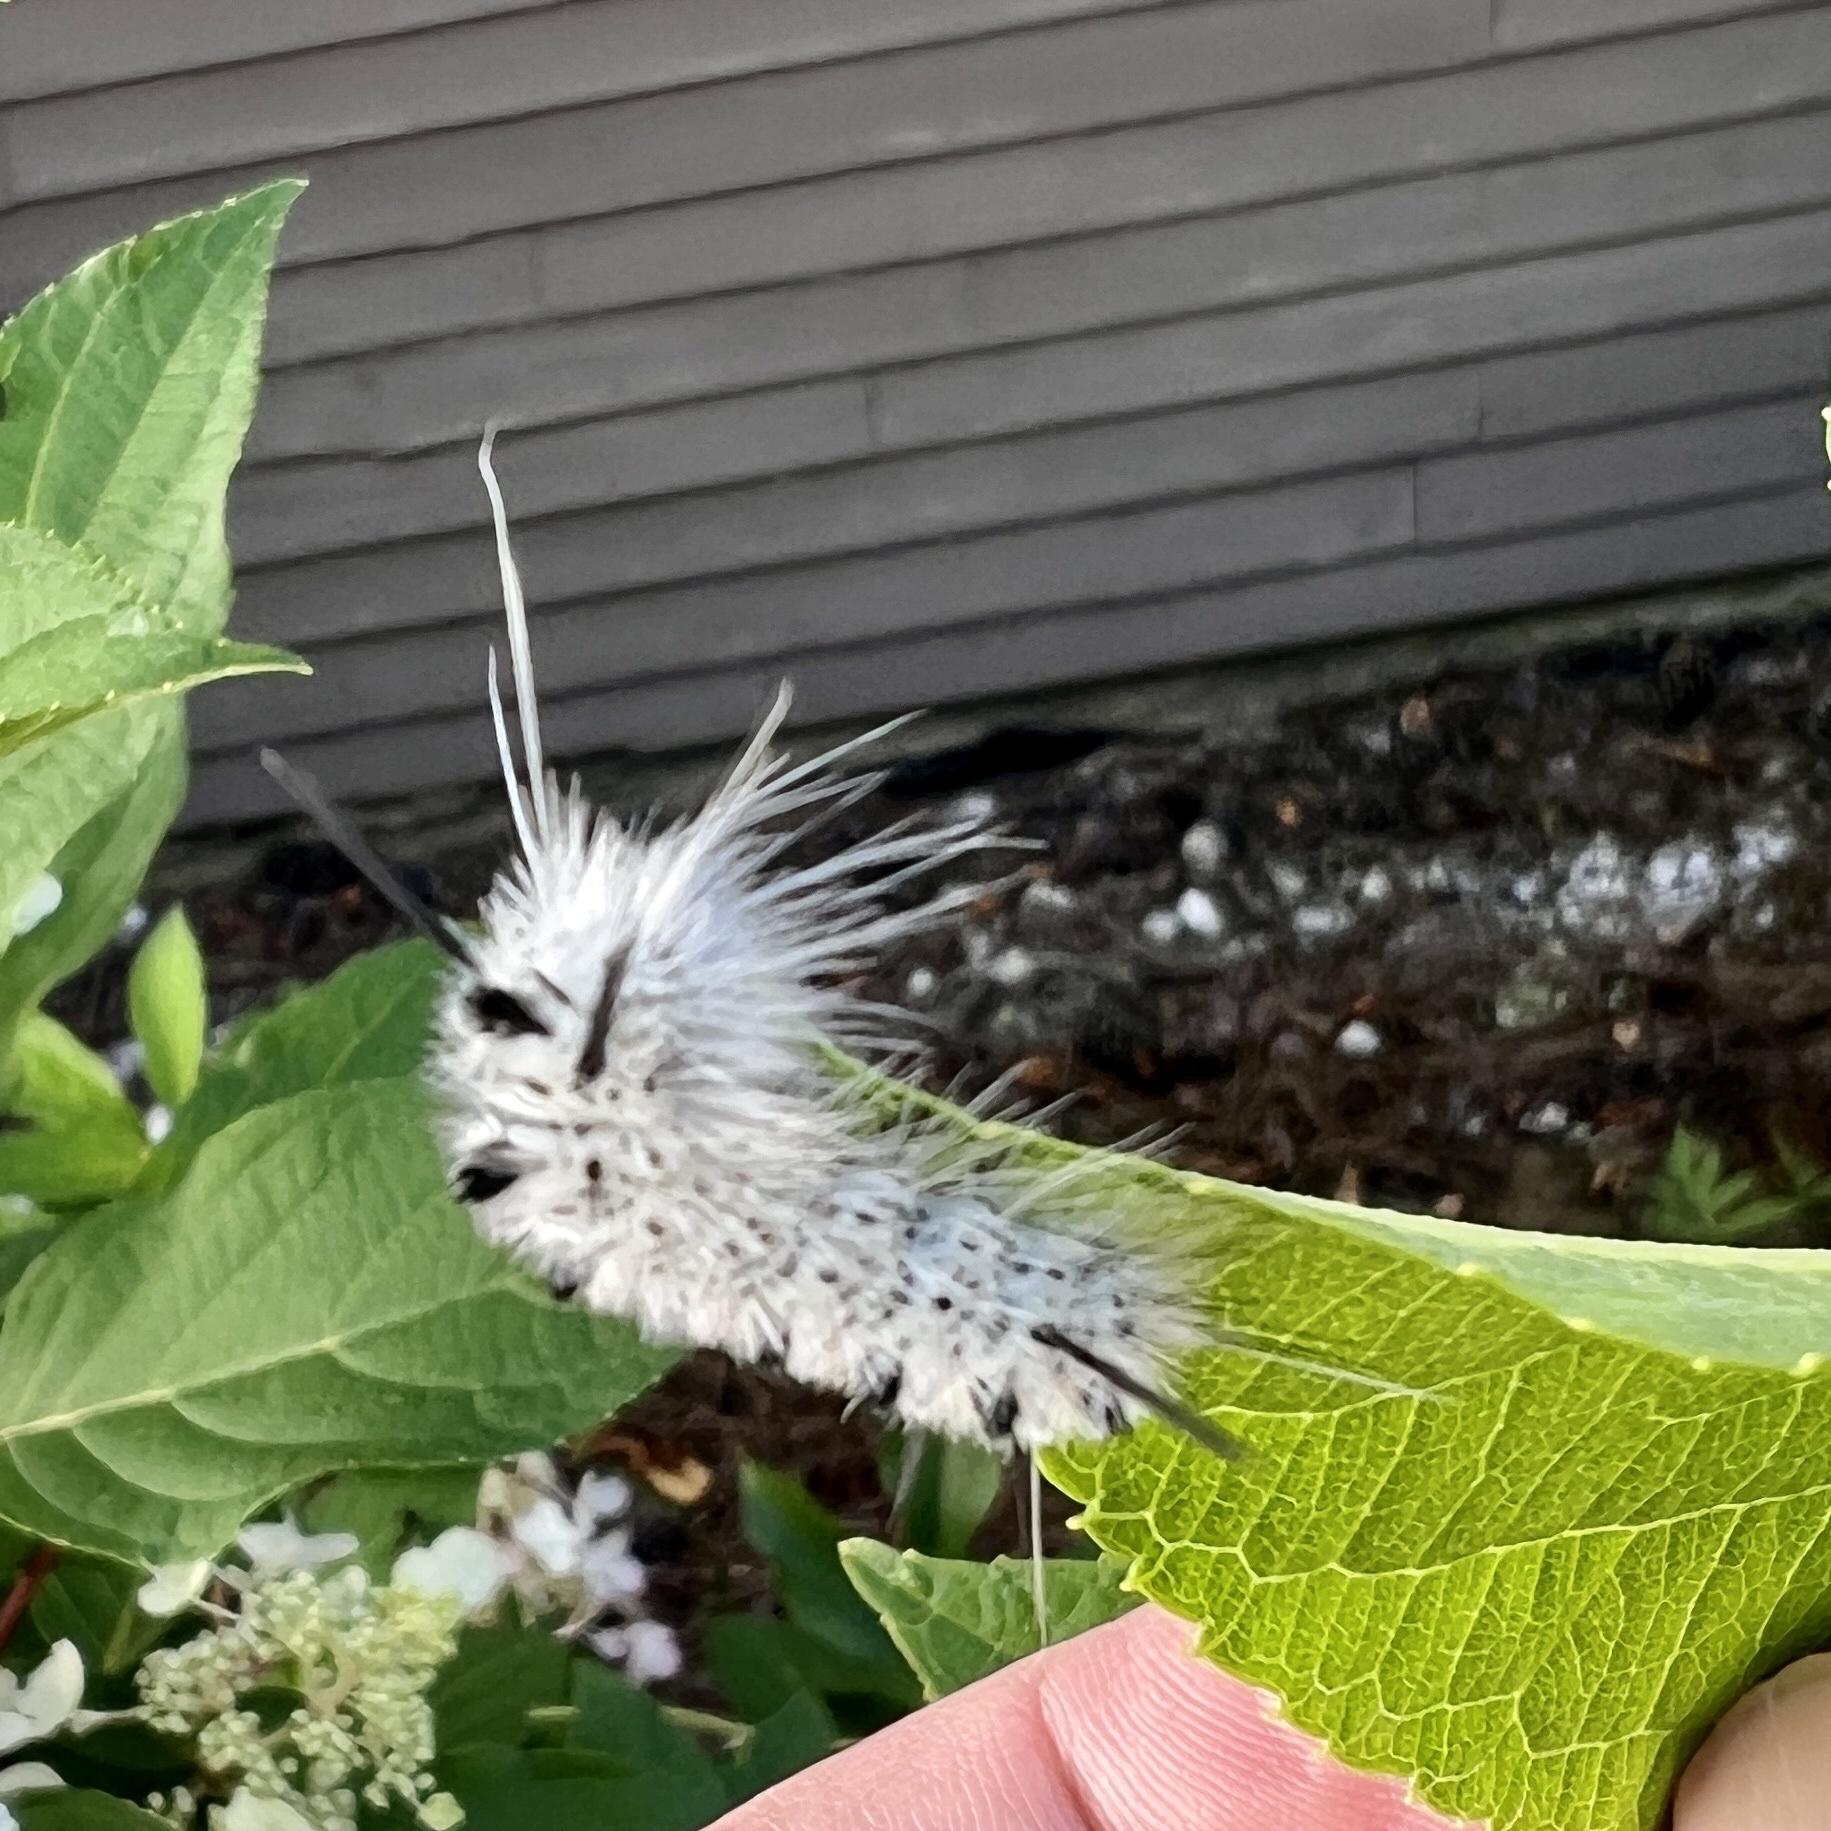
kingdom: Animalia
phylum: Arthropoda
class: Insecta
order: Lepidoptera
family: Erebidae
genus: Lophocampa
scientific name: Lophocampa caryae
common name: Hickory tussock moth
